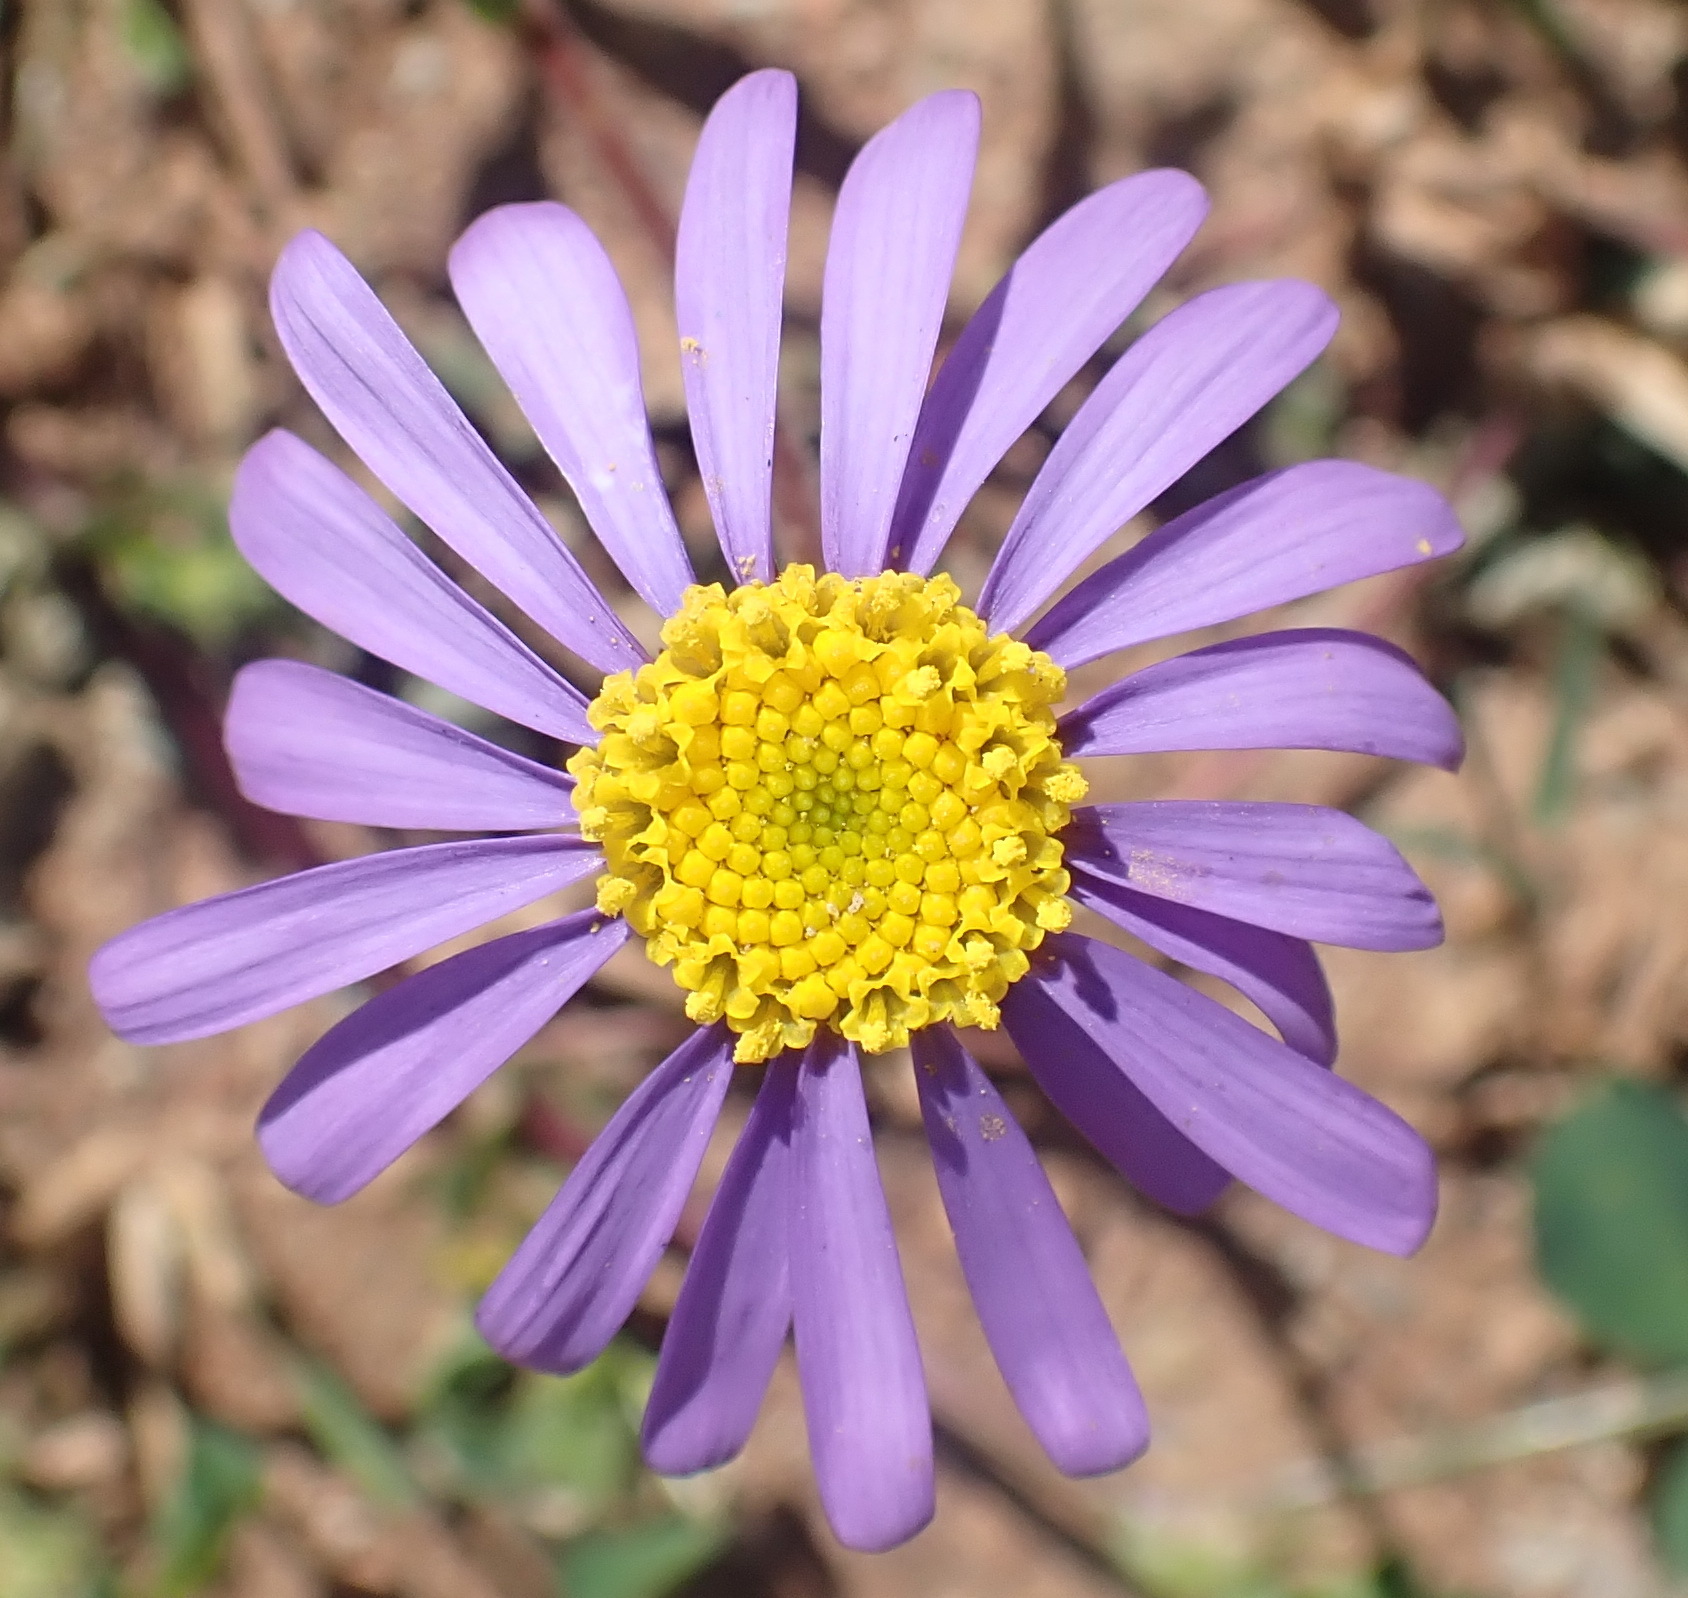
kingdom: Plantae
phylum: Tracheophyta
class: Magnoliopsida
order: Asterales
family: Asteraceae
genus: Amellus
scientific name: Amellus tridactylus
